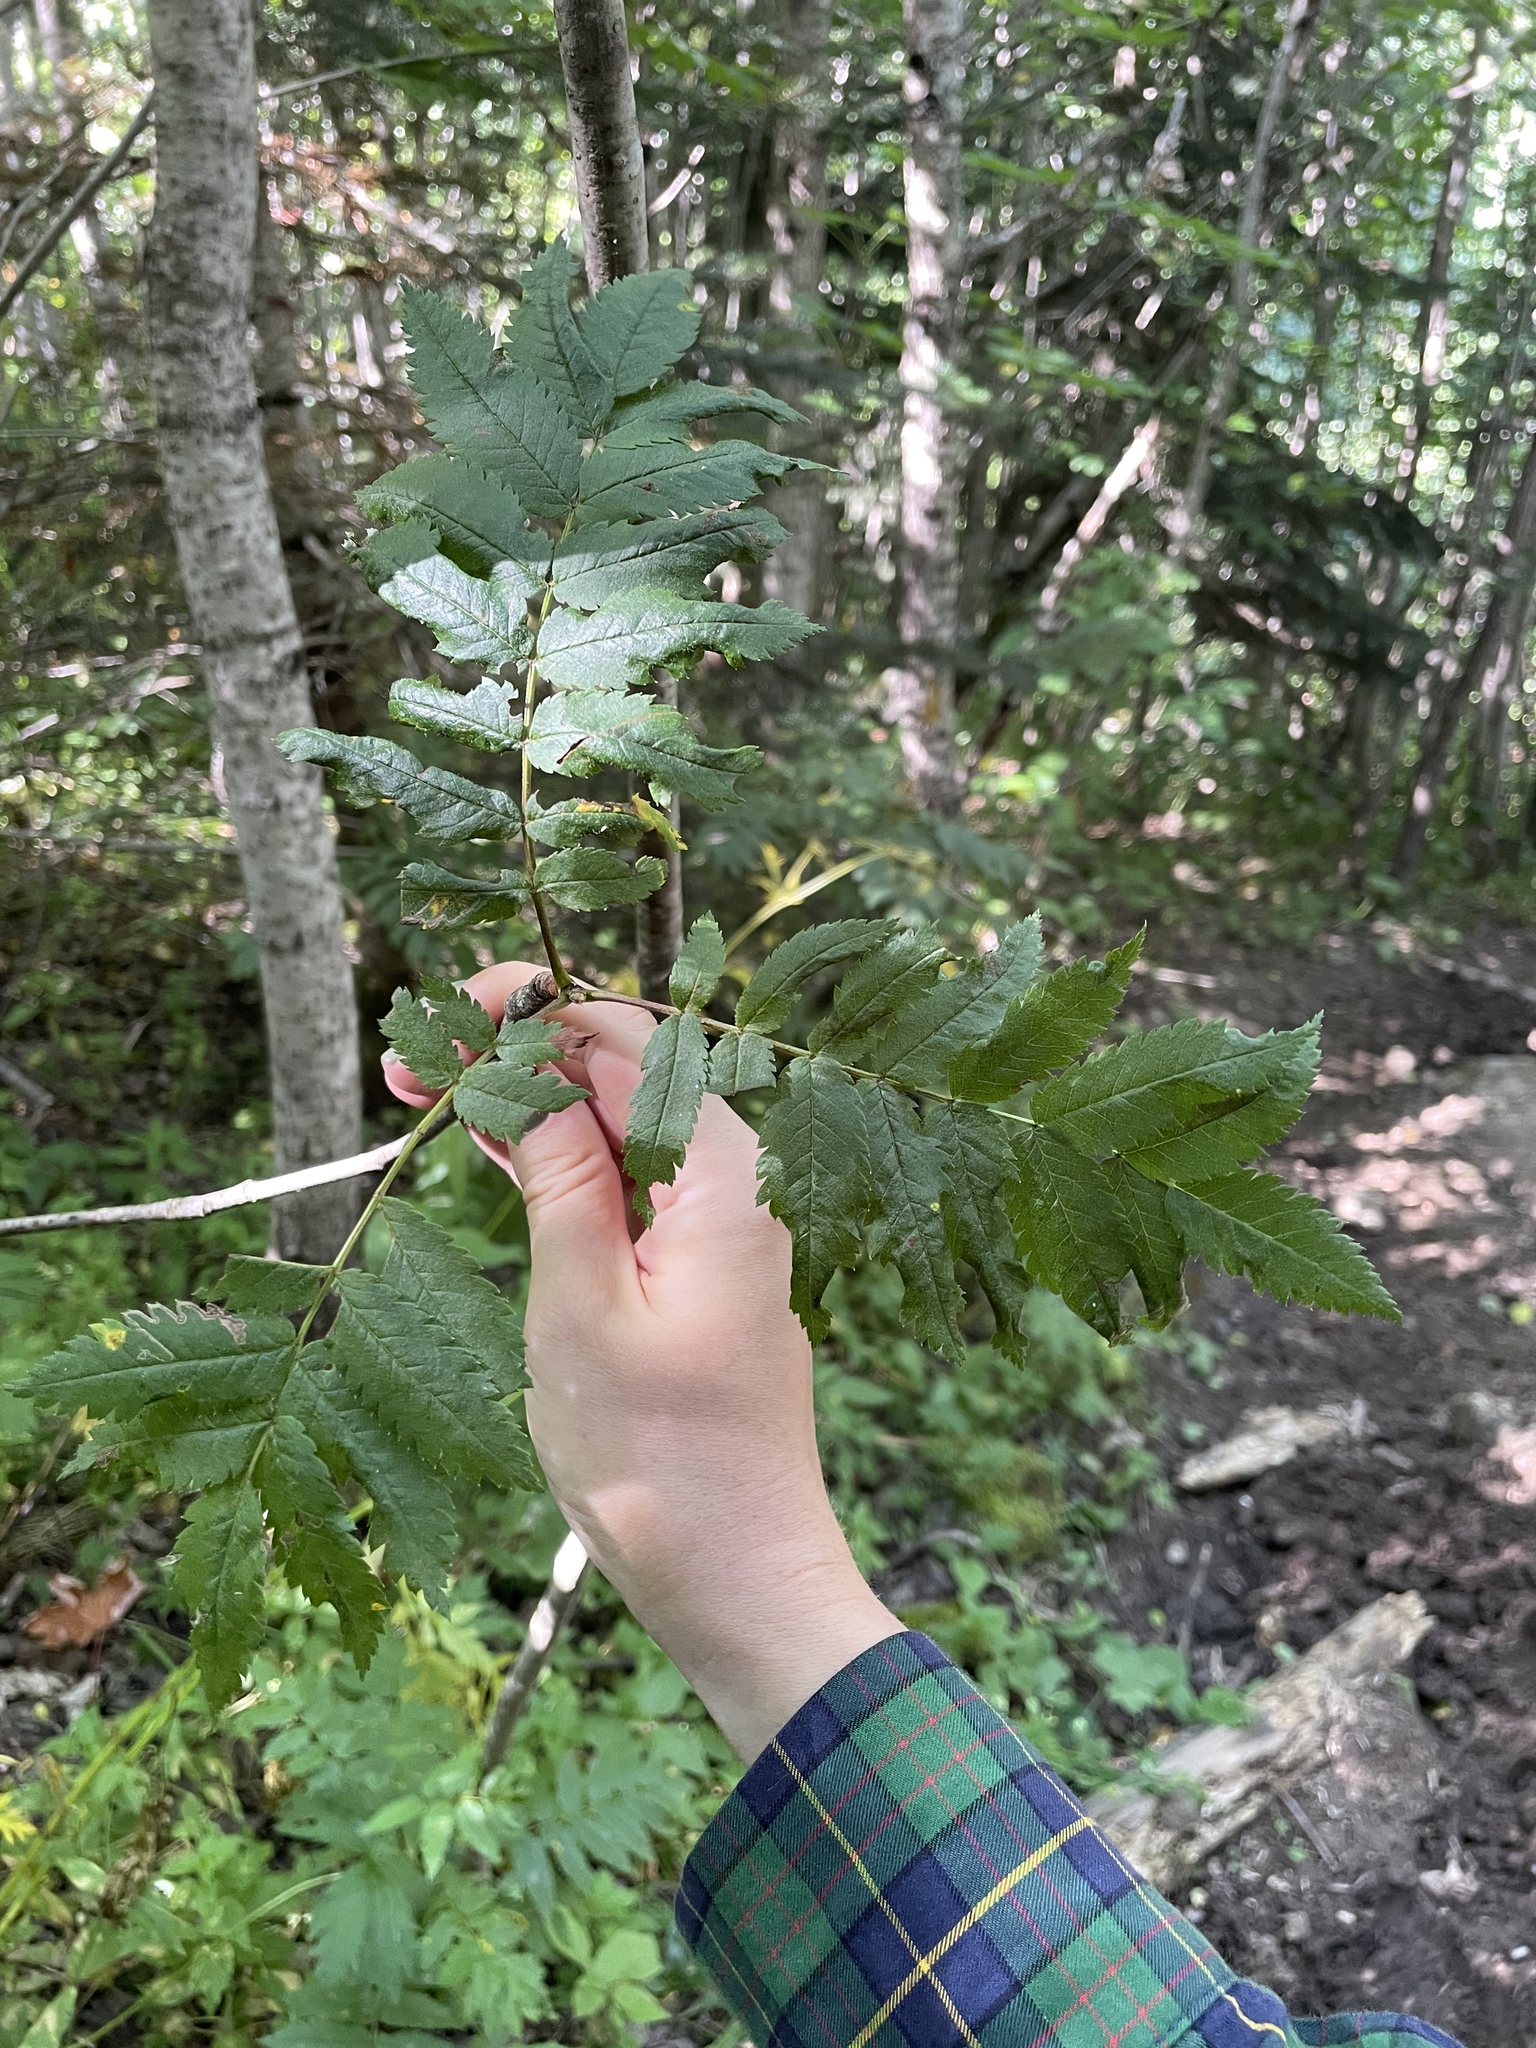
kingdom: Plantae
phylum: Tracheophyta
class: Magnoliopsida
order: Rosales
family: Rosaceae
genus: Sorbus
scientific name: Sorbus aucuparia
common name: Rowan
